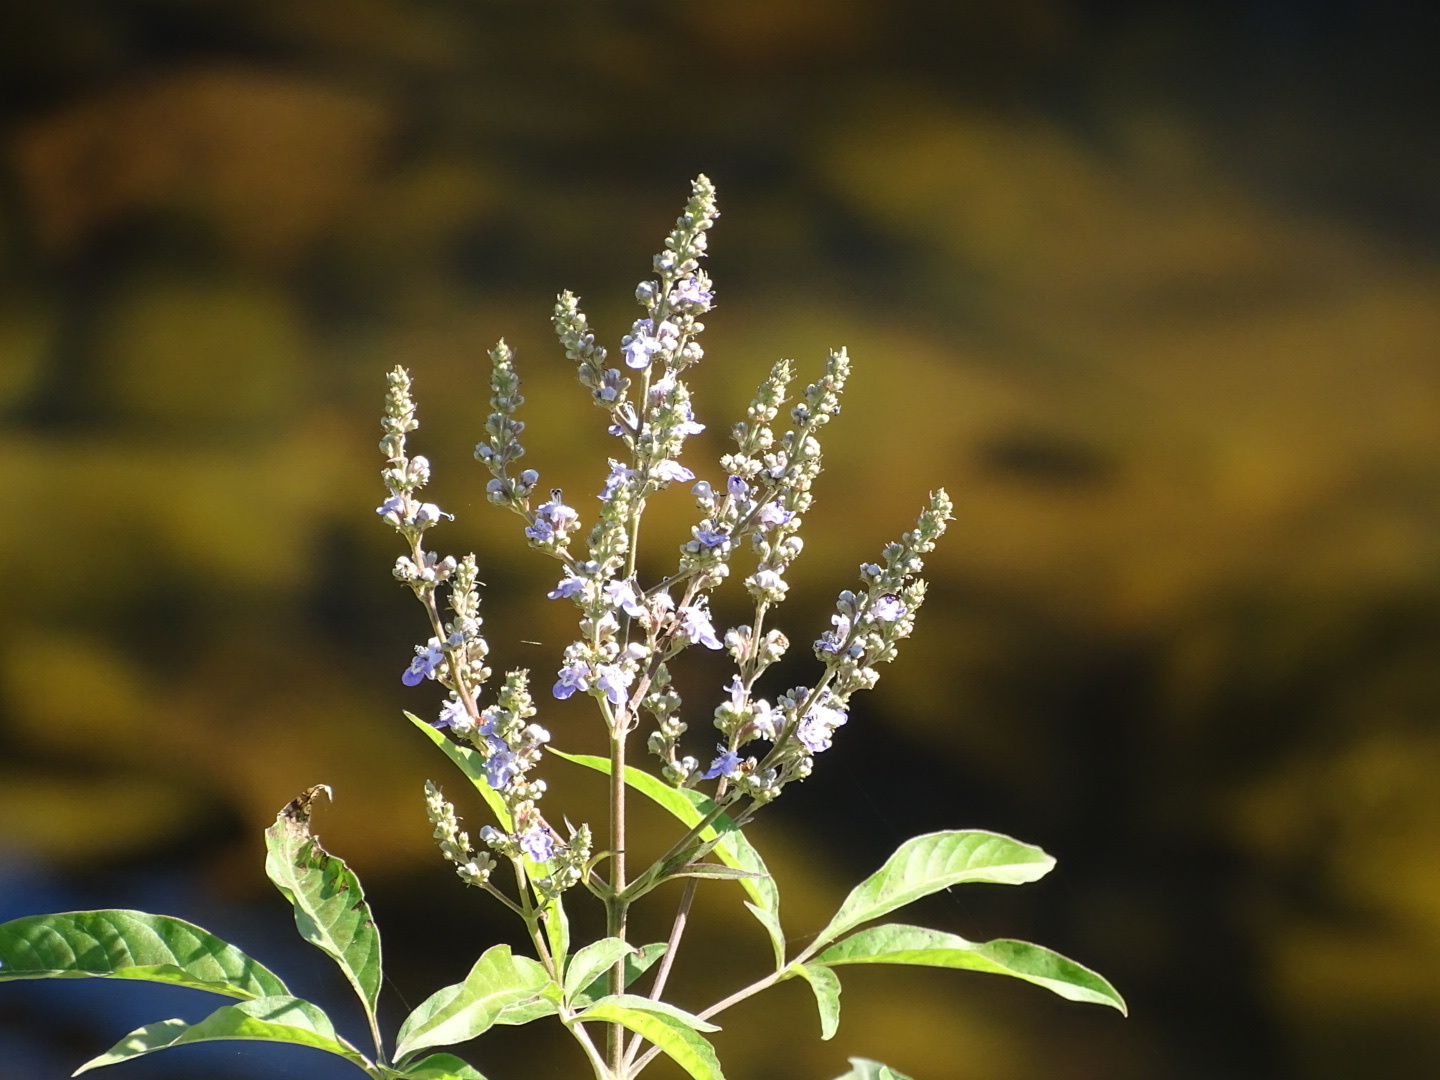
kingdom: Plantae
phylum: Tracheophyta
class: Magnoliopsida
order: Lamiales
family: Lamiaceae
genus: Vitex
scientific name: Vitex negundo
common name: Chinese chastetree
